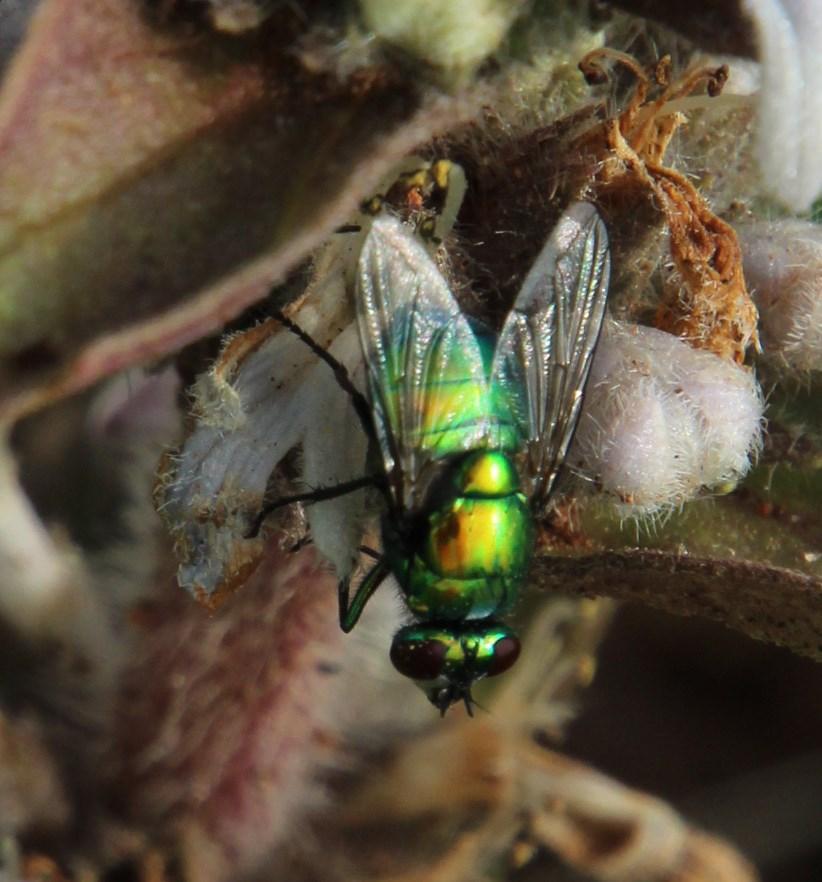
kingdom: Plantae
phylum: Tracheophyta
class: Magnoliopsida
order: Lamiales
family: Lamiaceae
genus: Ajuga
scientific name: Ajuga ophrydis
